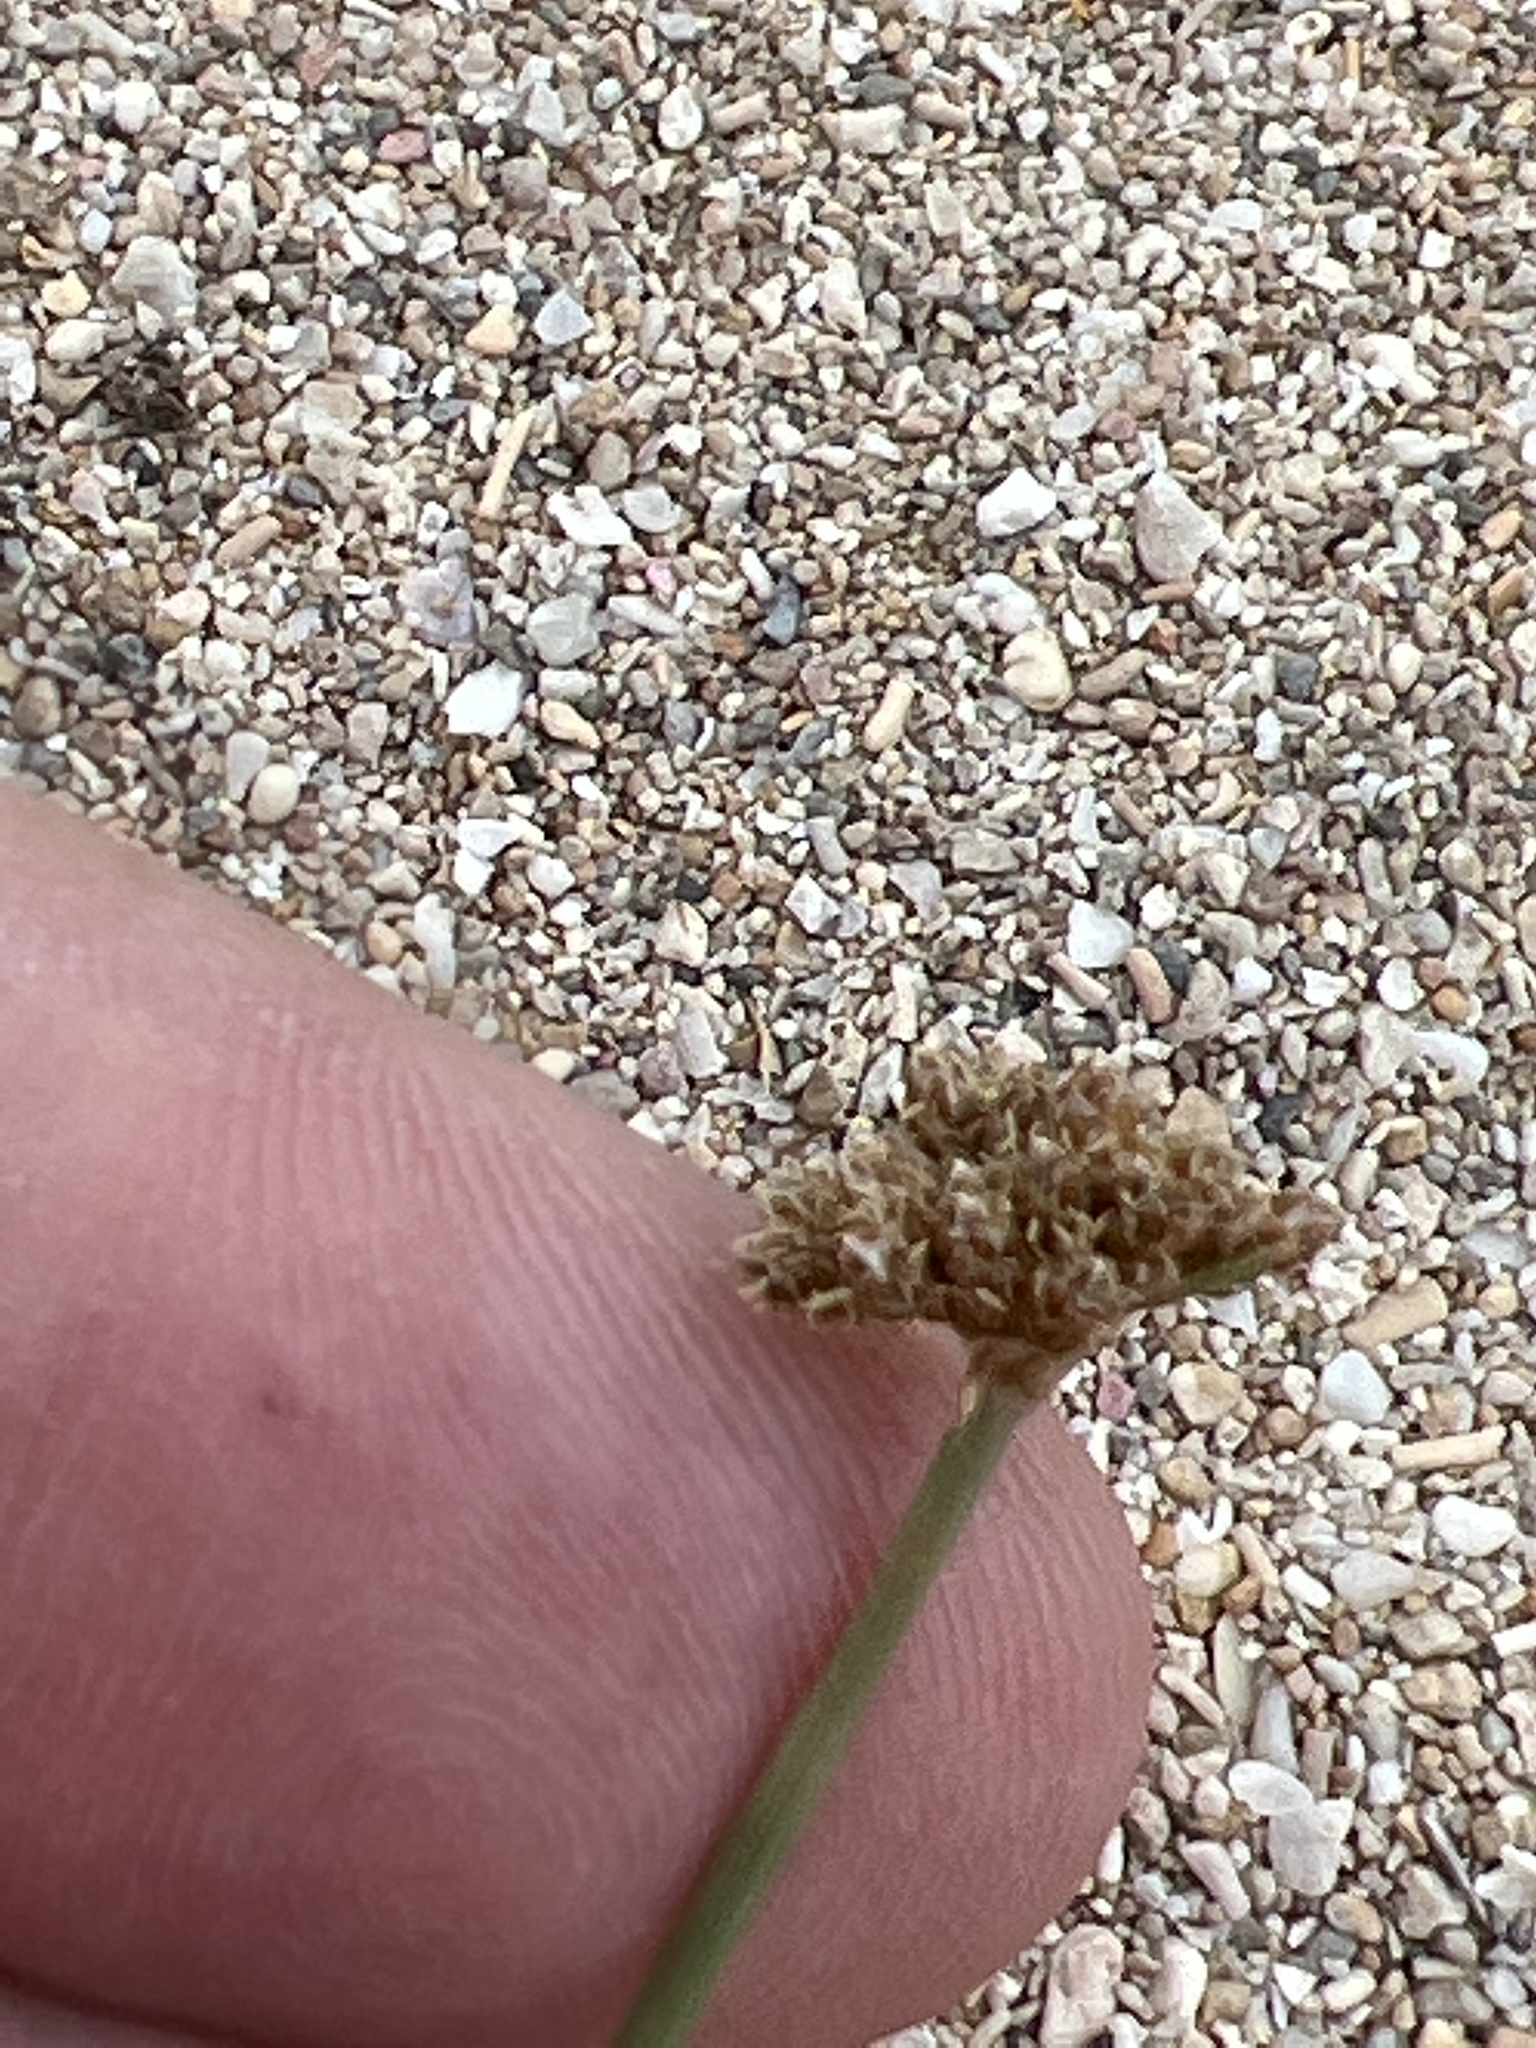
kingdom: Plantae
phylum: Tracheophyta
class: Liliopsida
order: Poales
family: Cyperaceae
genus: Fimbristylis
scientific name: Fimbristylis cymosa
